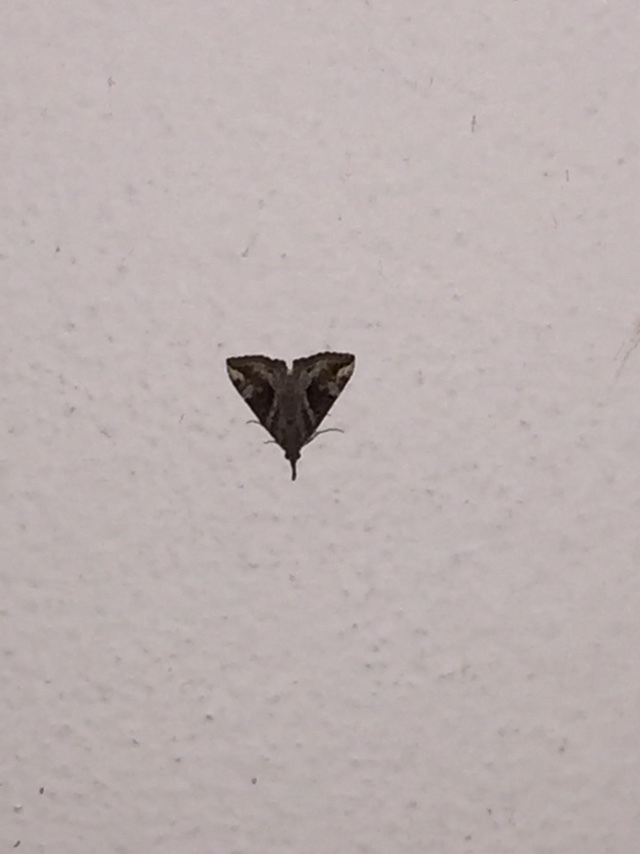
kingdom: Animalia
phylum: Arthropoda
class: Insecta
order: Lepidoptera
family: Erebidae
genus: Hypena
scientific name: Hypena commixtalis
